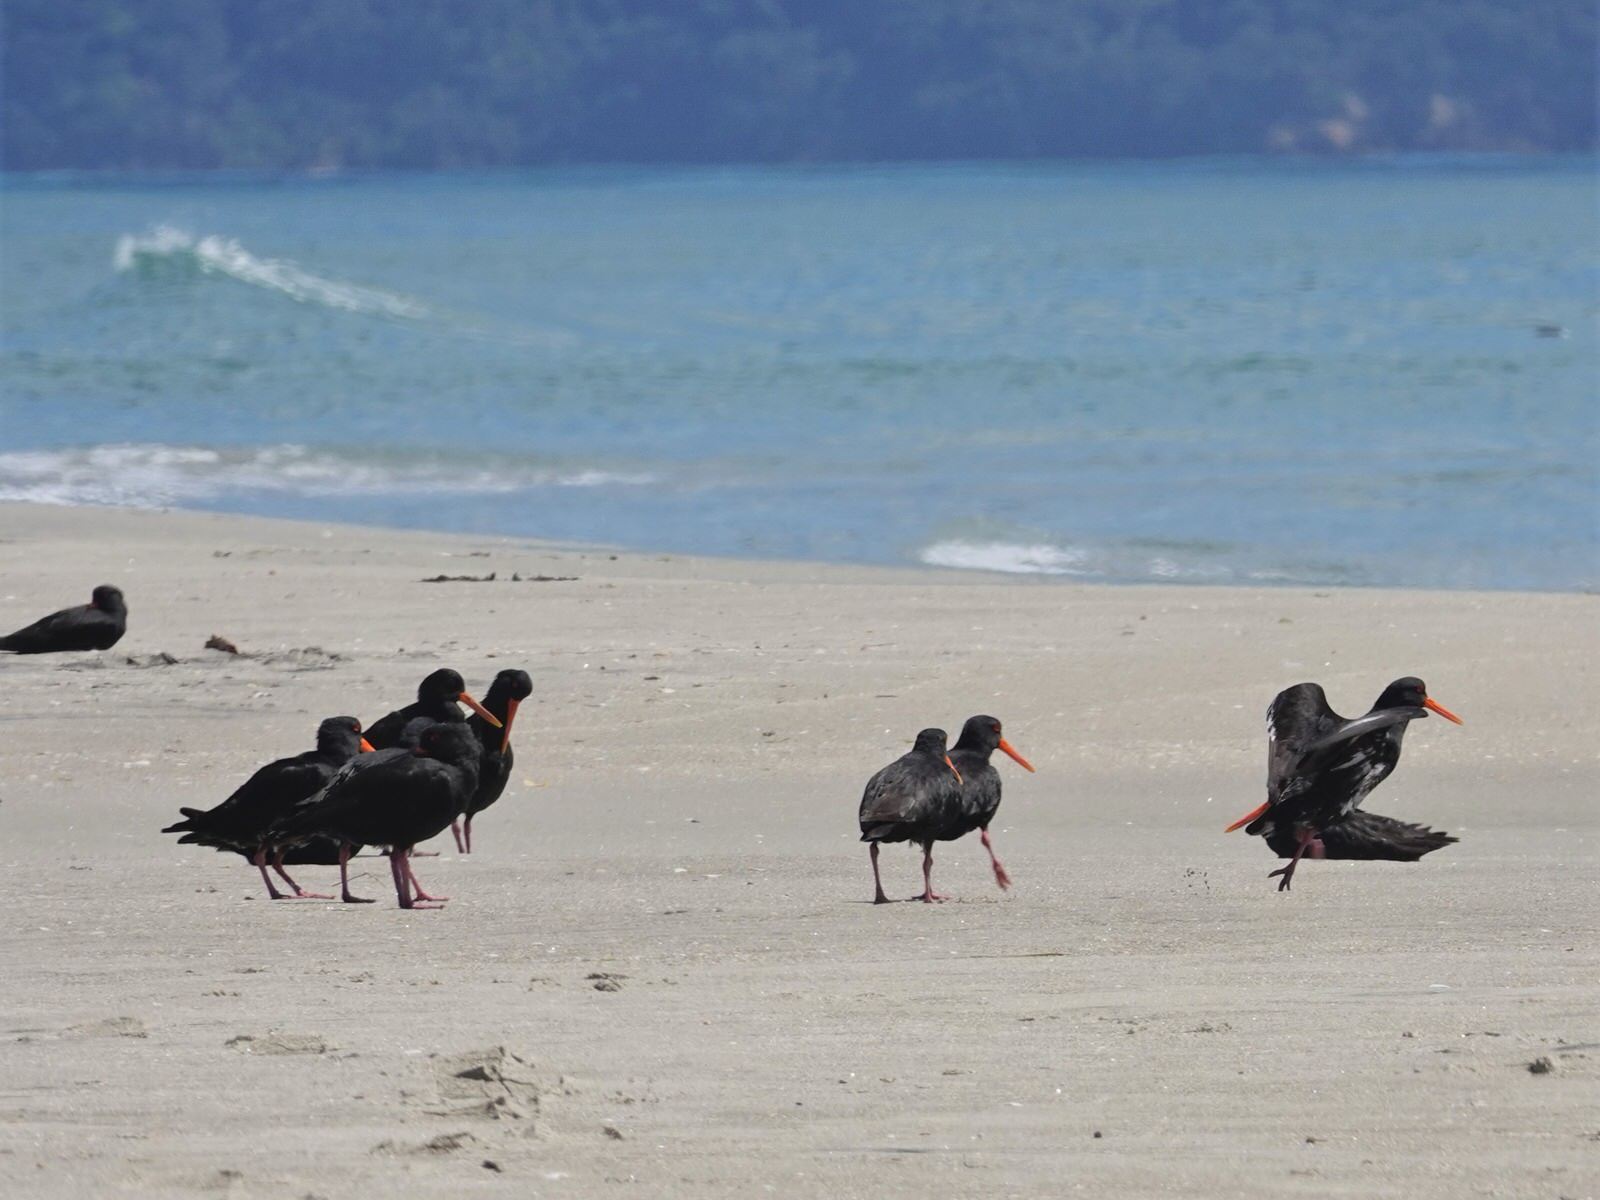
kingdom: Animalia
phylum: Chordata
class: Aves
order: Charadriiformes
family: Haematopodidae
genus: Haematopus
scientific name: Haematopus unicolor
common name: Variable oystercatcher
